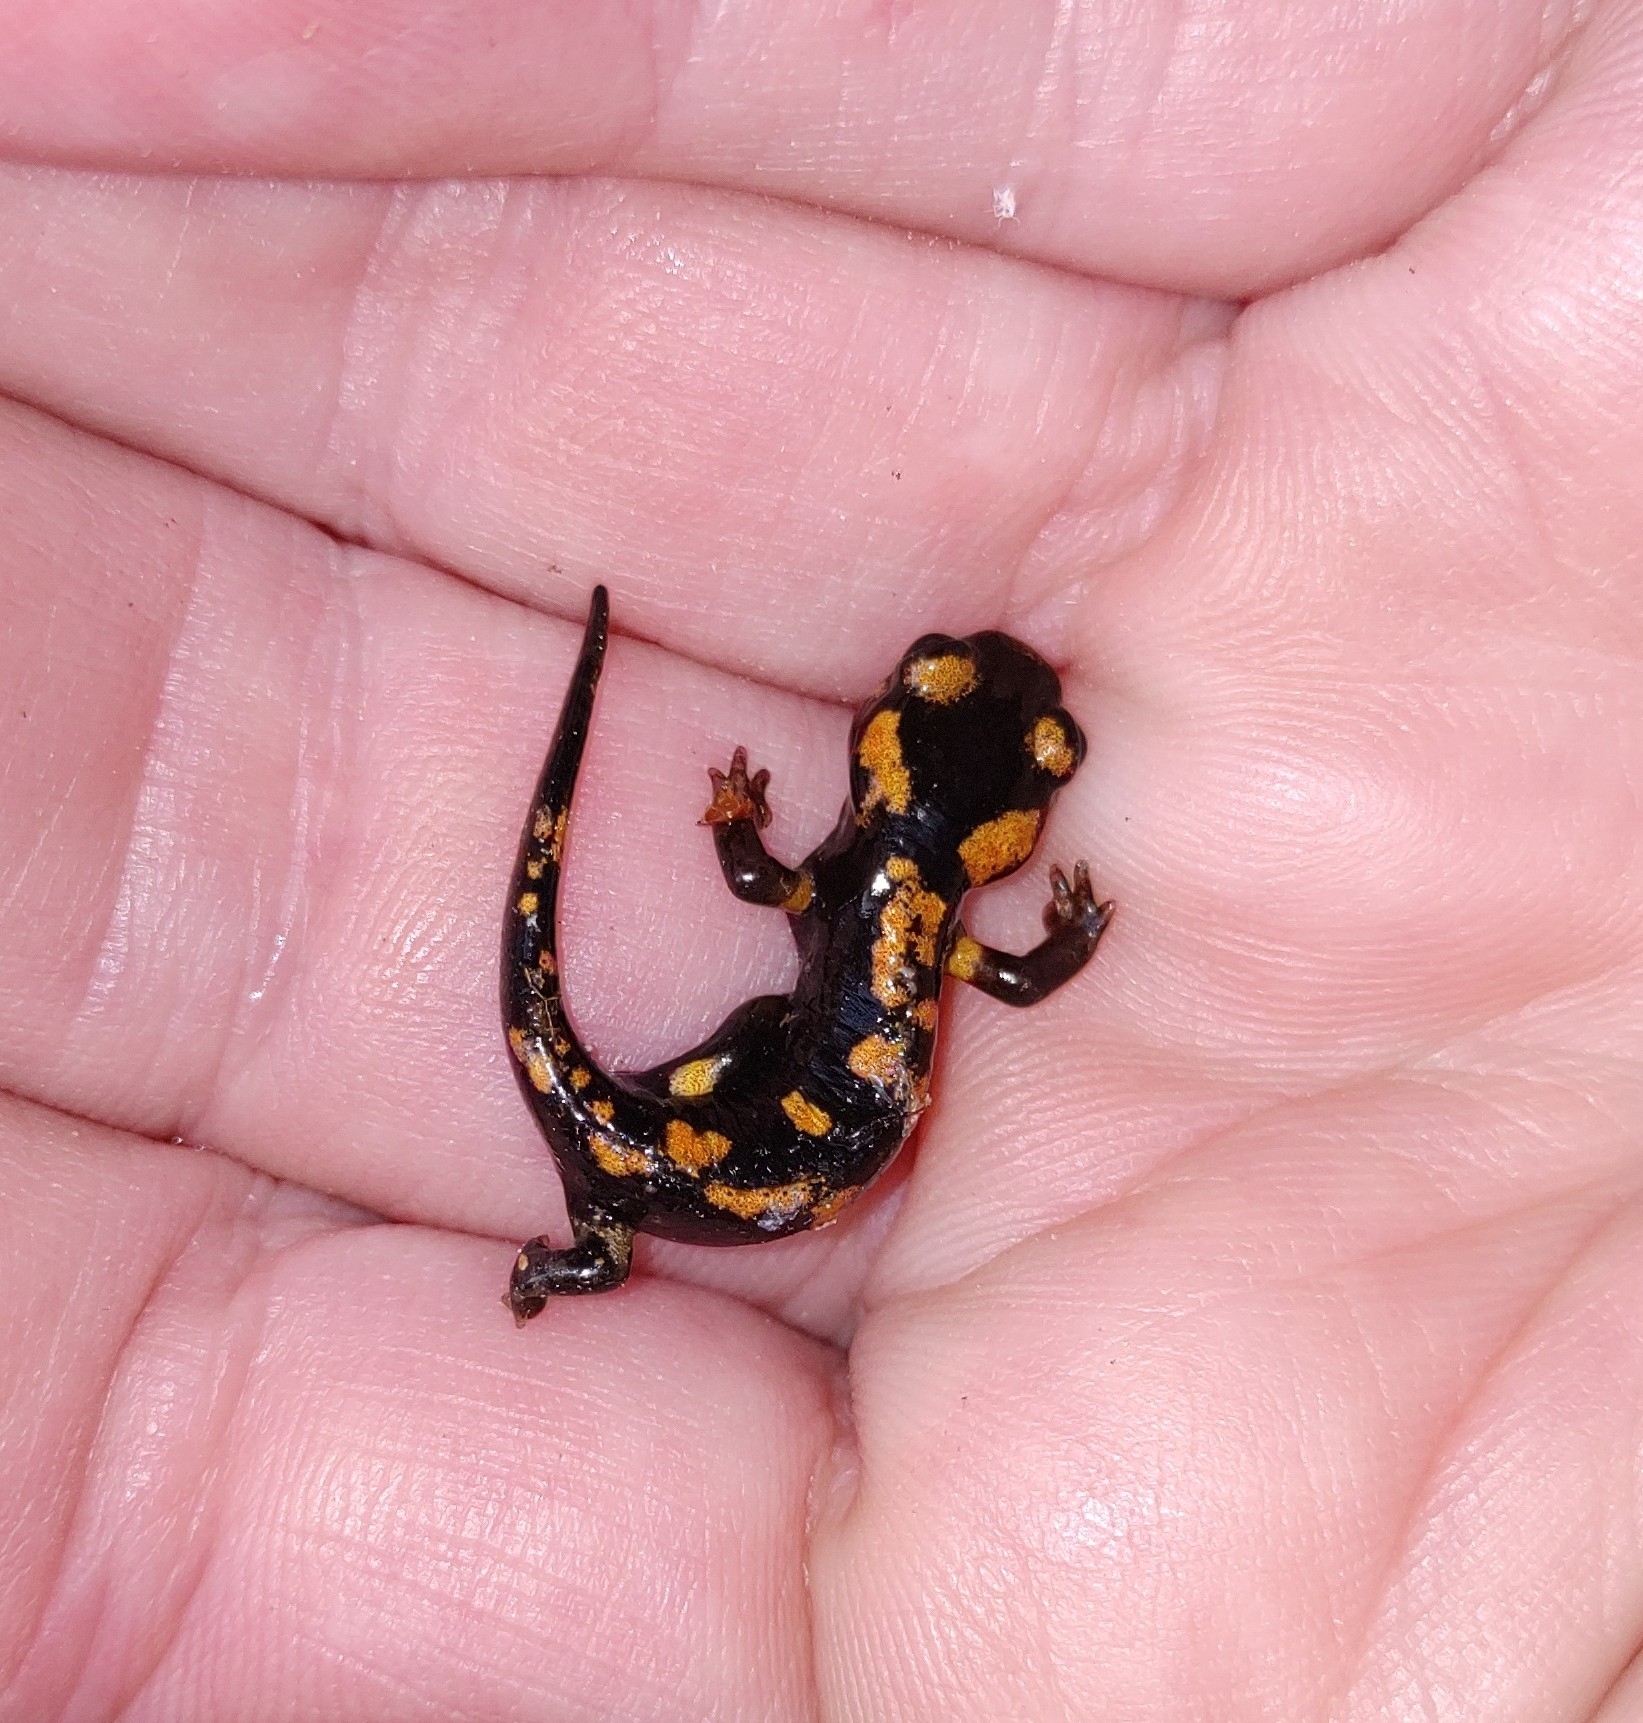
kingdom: Animalia
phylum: Chordata
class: Amphibia
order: Caudata
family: Salamandridae
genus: Salamandra
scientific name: Salamandra corsica
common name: Corsican fire salamander
